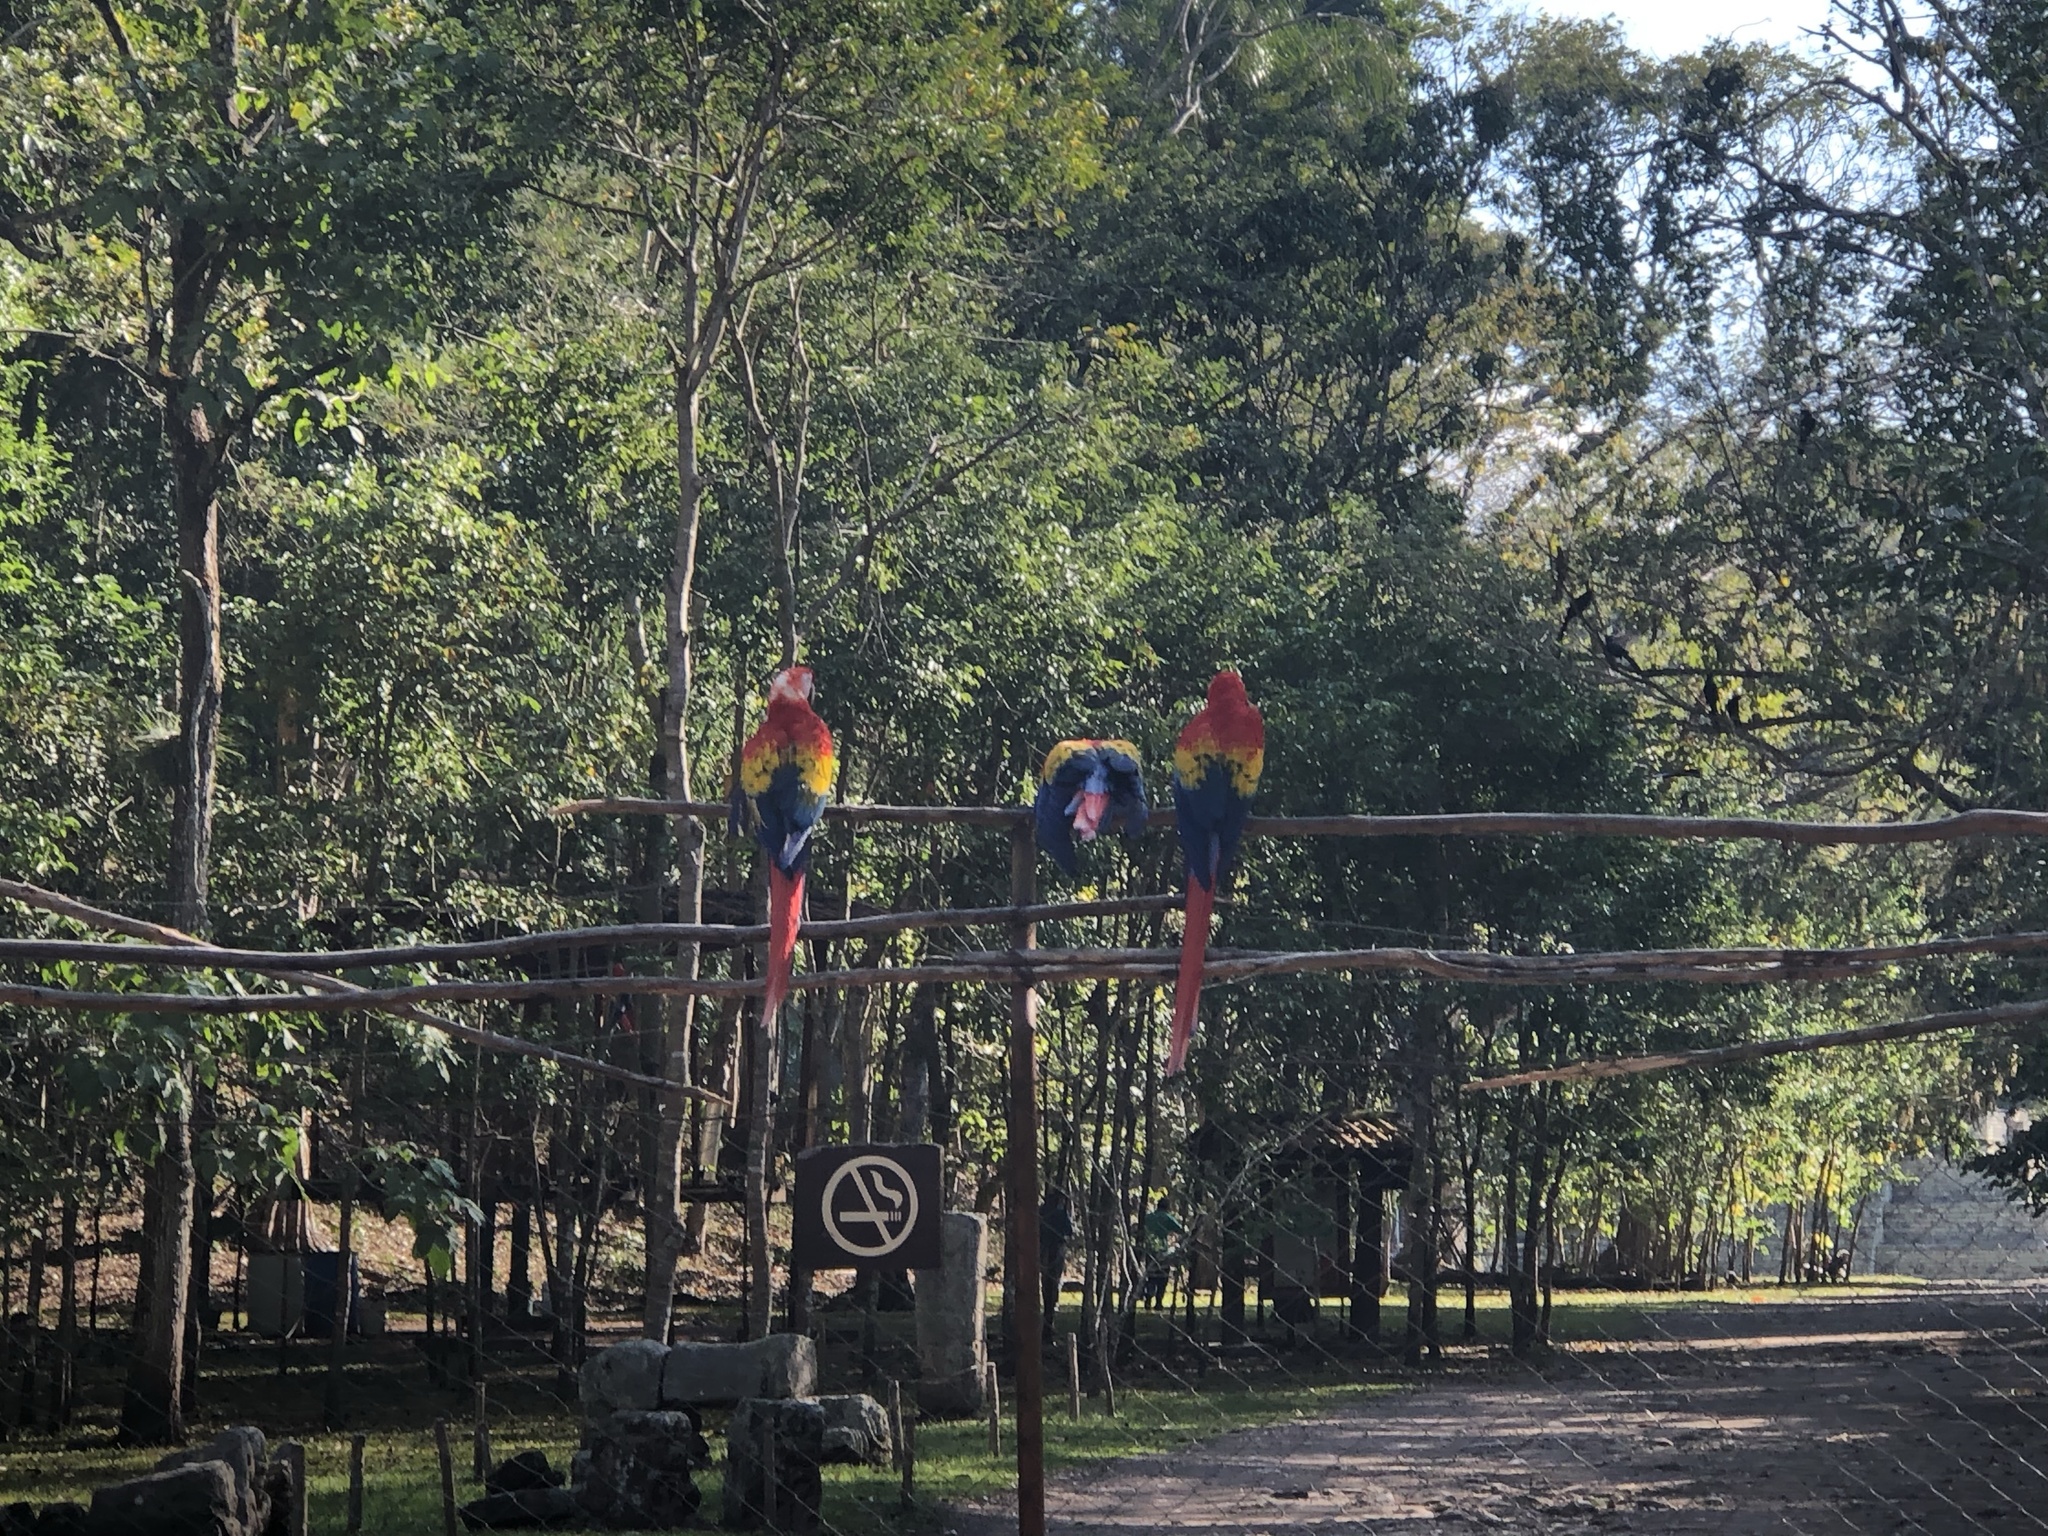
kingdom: Animalia
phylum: Chordata
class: Aves
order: Psittaciformes
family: Psittacidae
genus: Ara
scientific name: Ara macao
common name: Scarlet macaw
